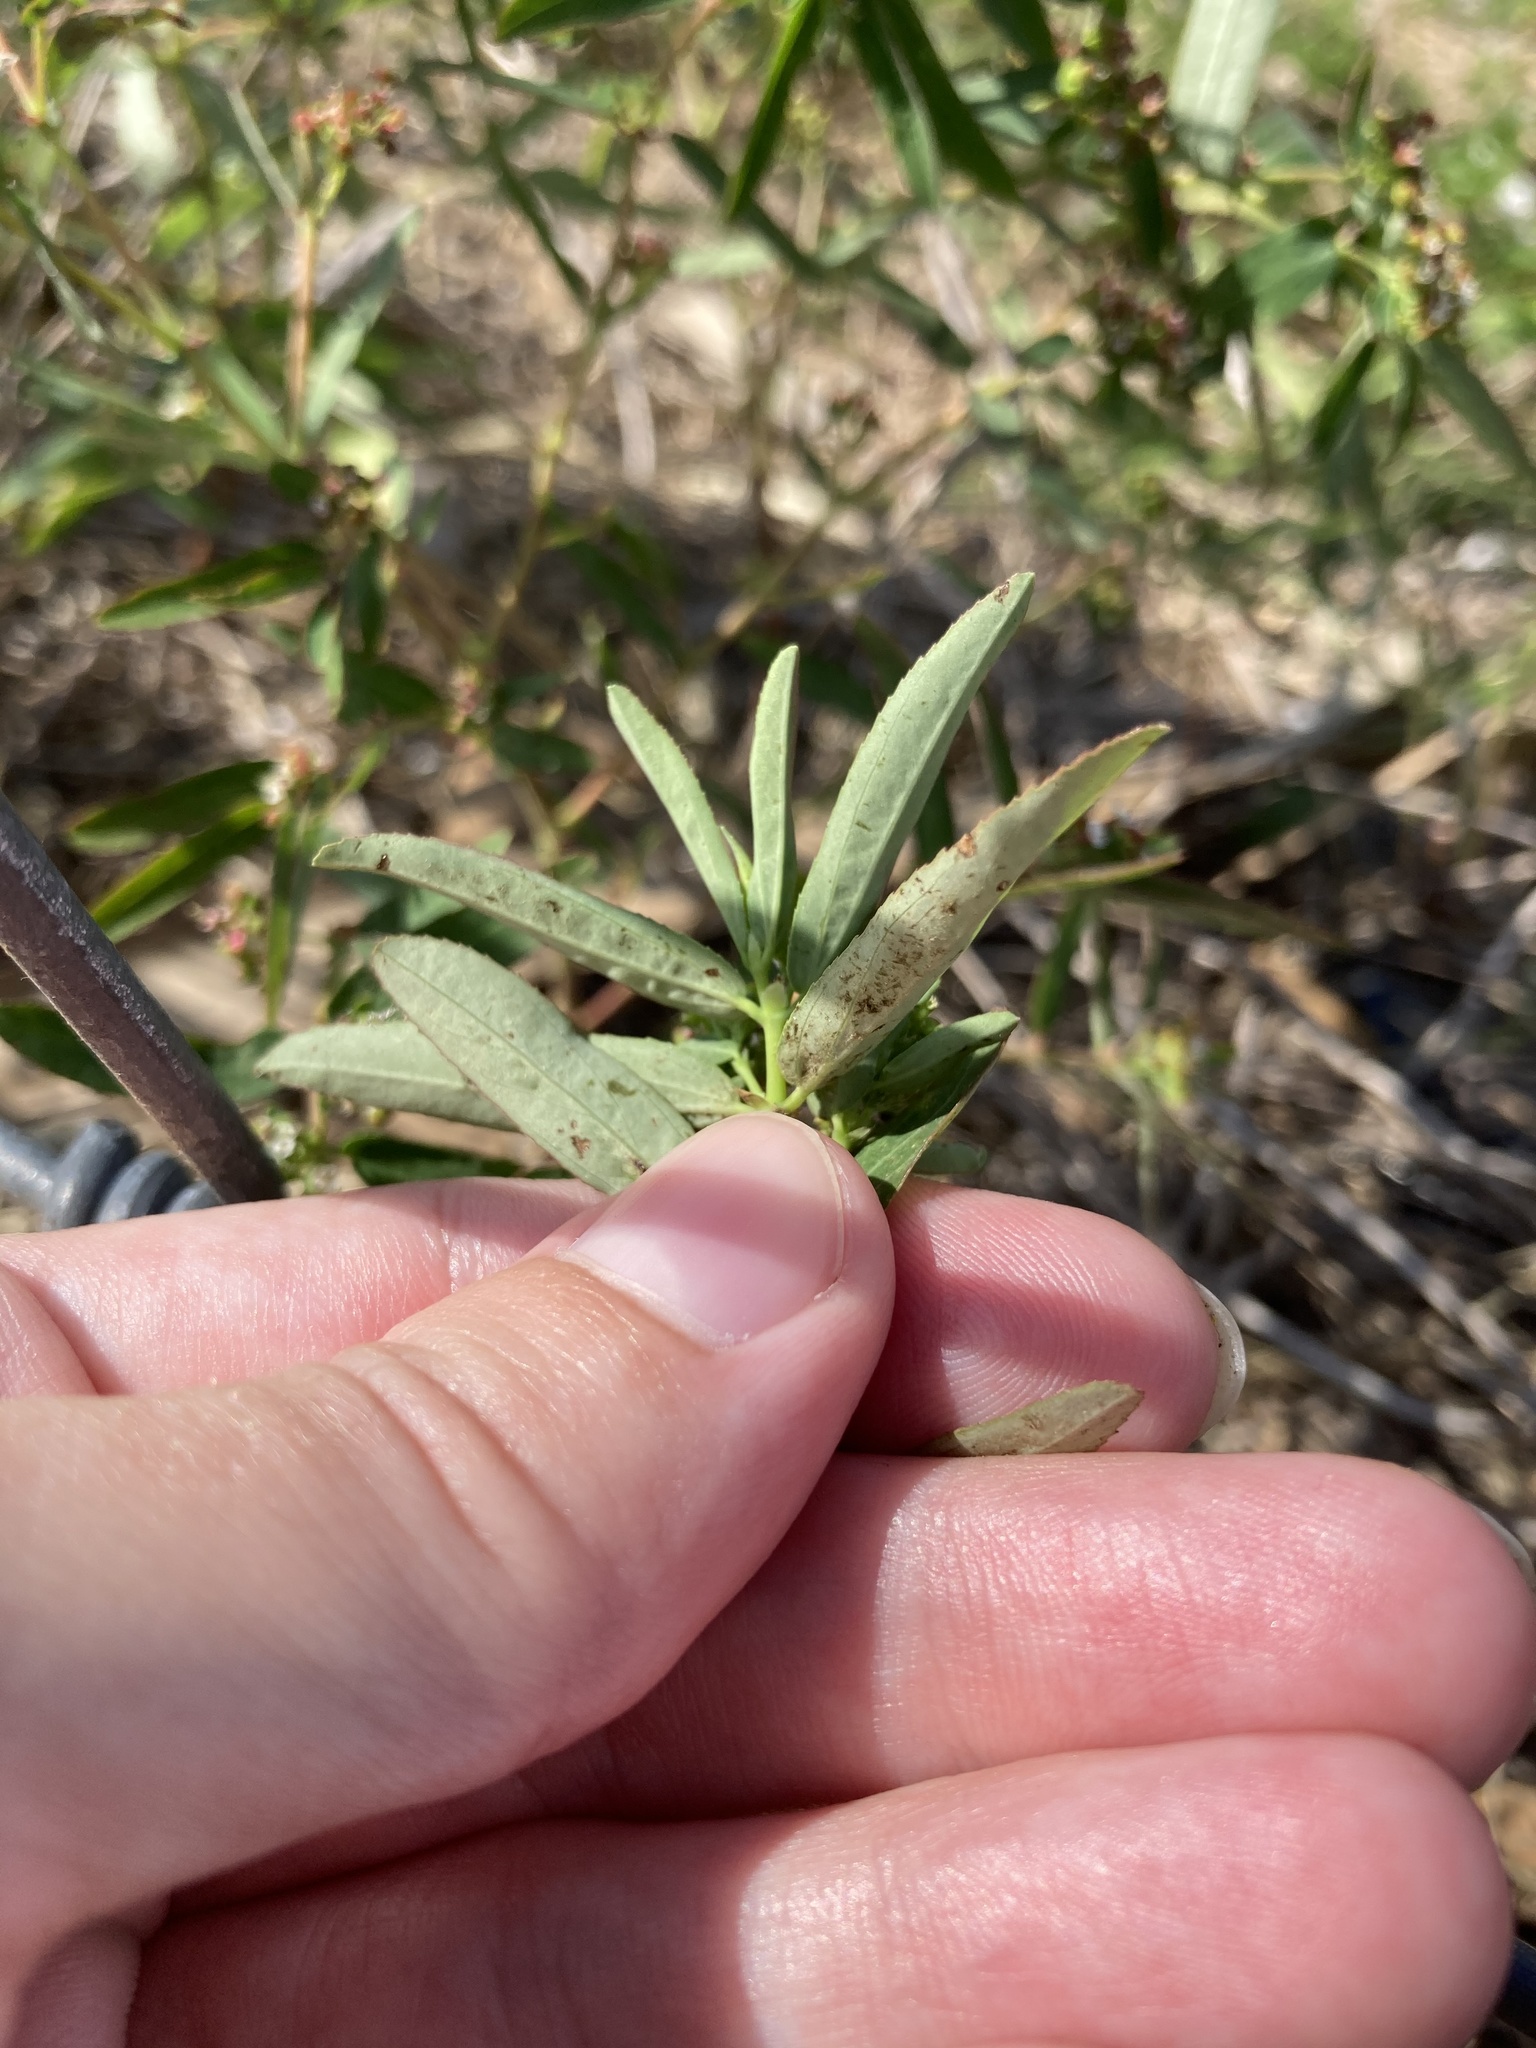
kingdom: Plantae
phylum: Tracheophyta
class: Magnoliopsida
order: Malpighiales
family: Euphorbiaceae
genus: Euphorbia
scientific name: Euphorbia hypericifolia
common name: Graceful sandmat
